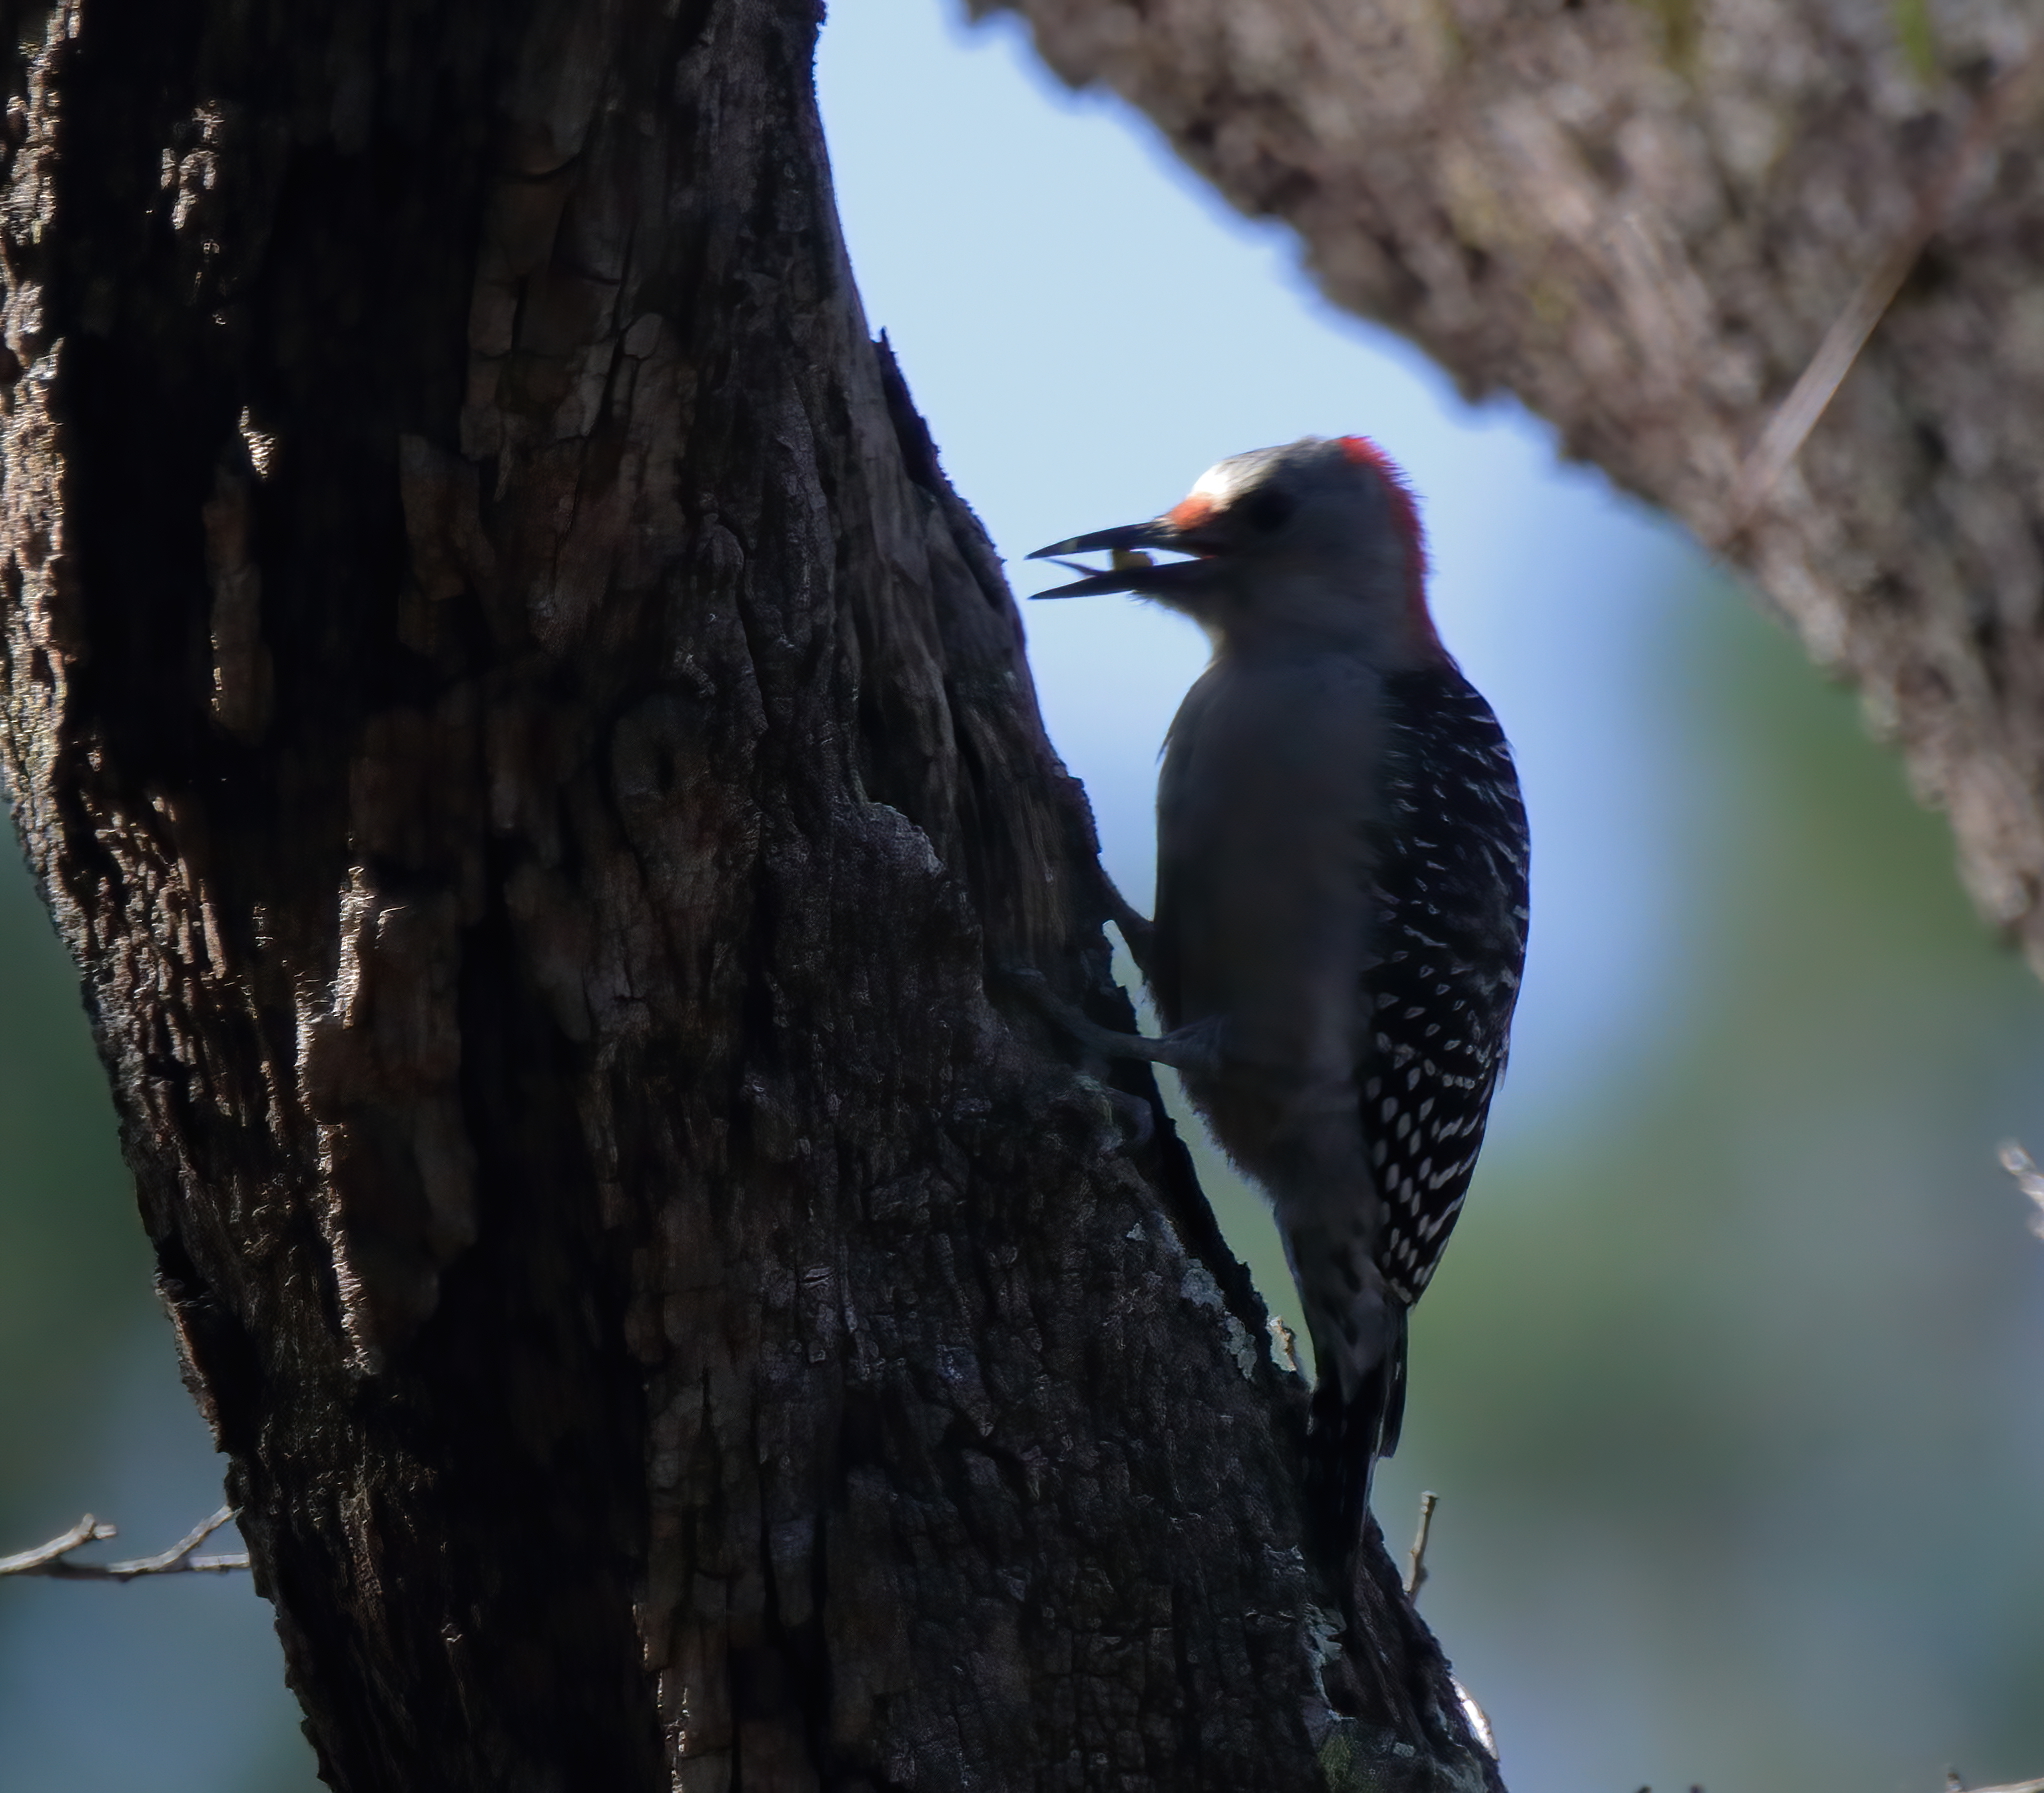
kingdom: Animalia
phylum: Chordata
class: Aves
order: Piciformes
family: Picidae
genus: Melanerpes
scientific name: Melanerpes carolinus
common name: Red-bellied woodpecker
